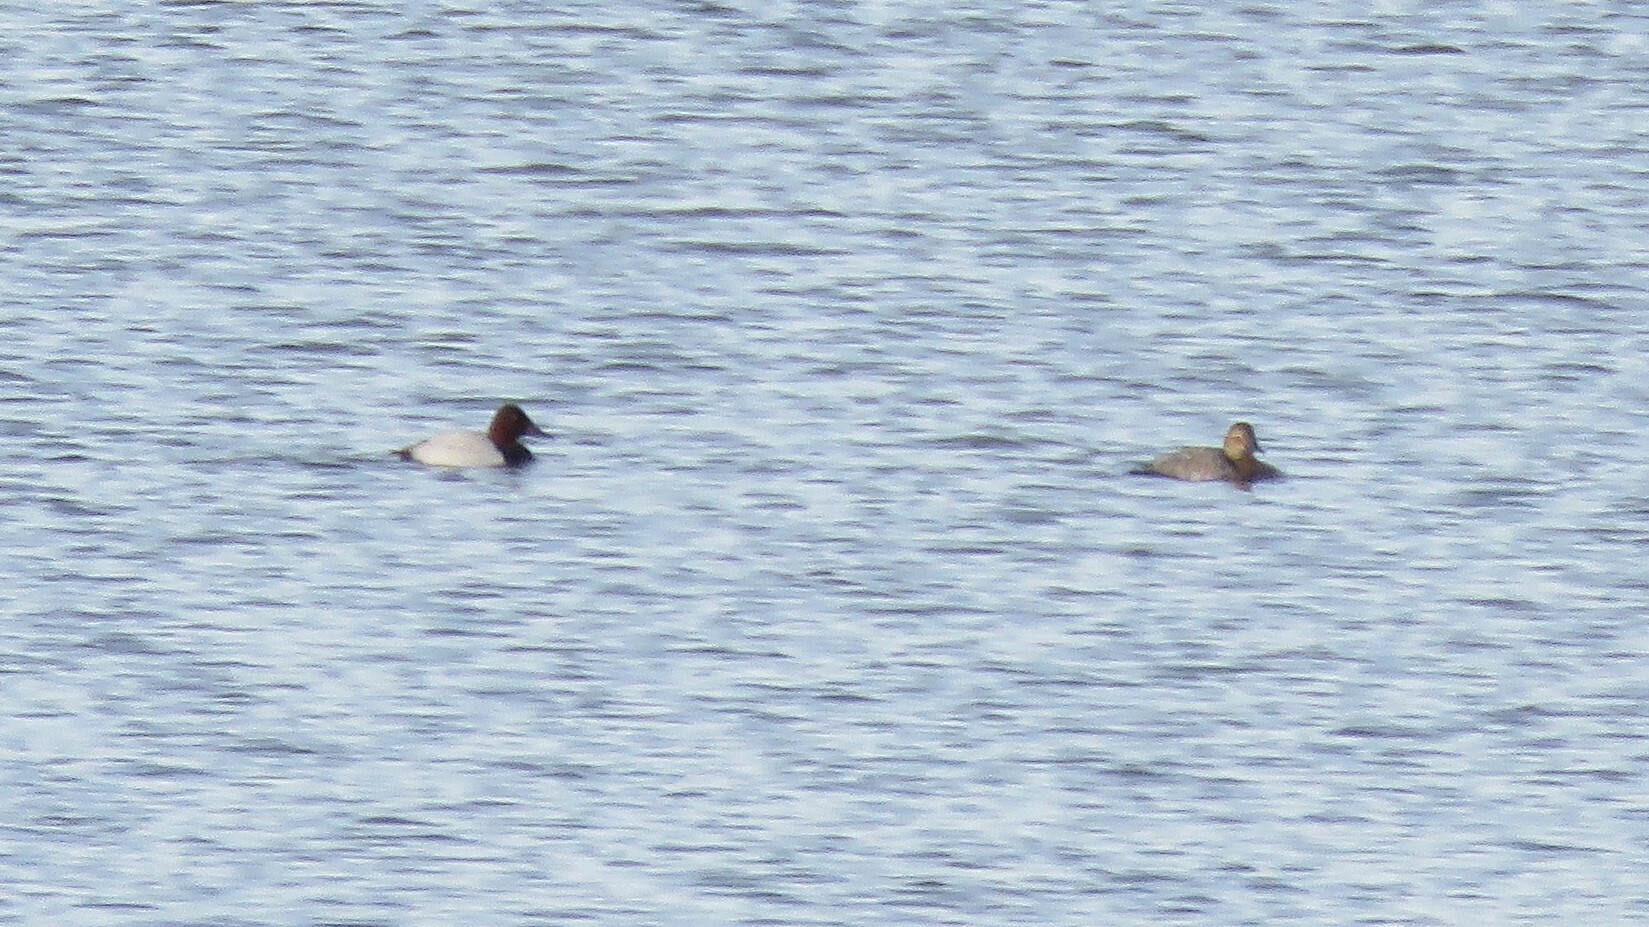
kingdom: Animalia
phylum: Chordata
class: Aves
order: Anseriformes
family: Anatidae
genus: Aythya
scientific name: Aythya valisineria
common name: Canvasback
